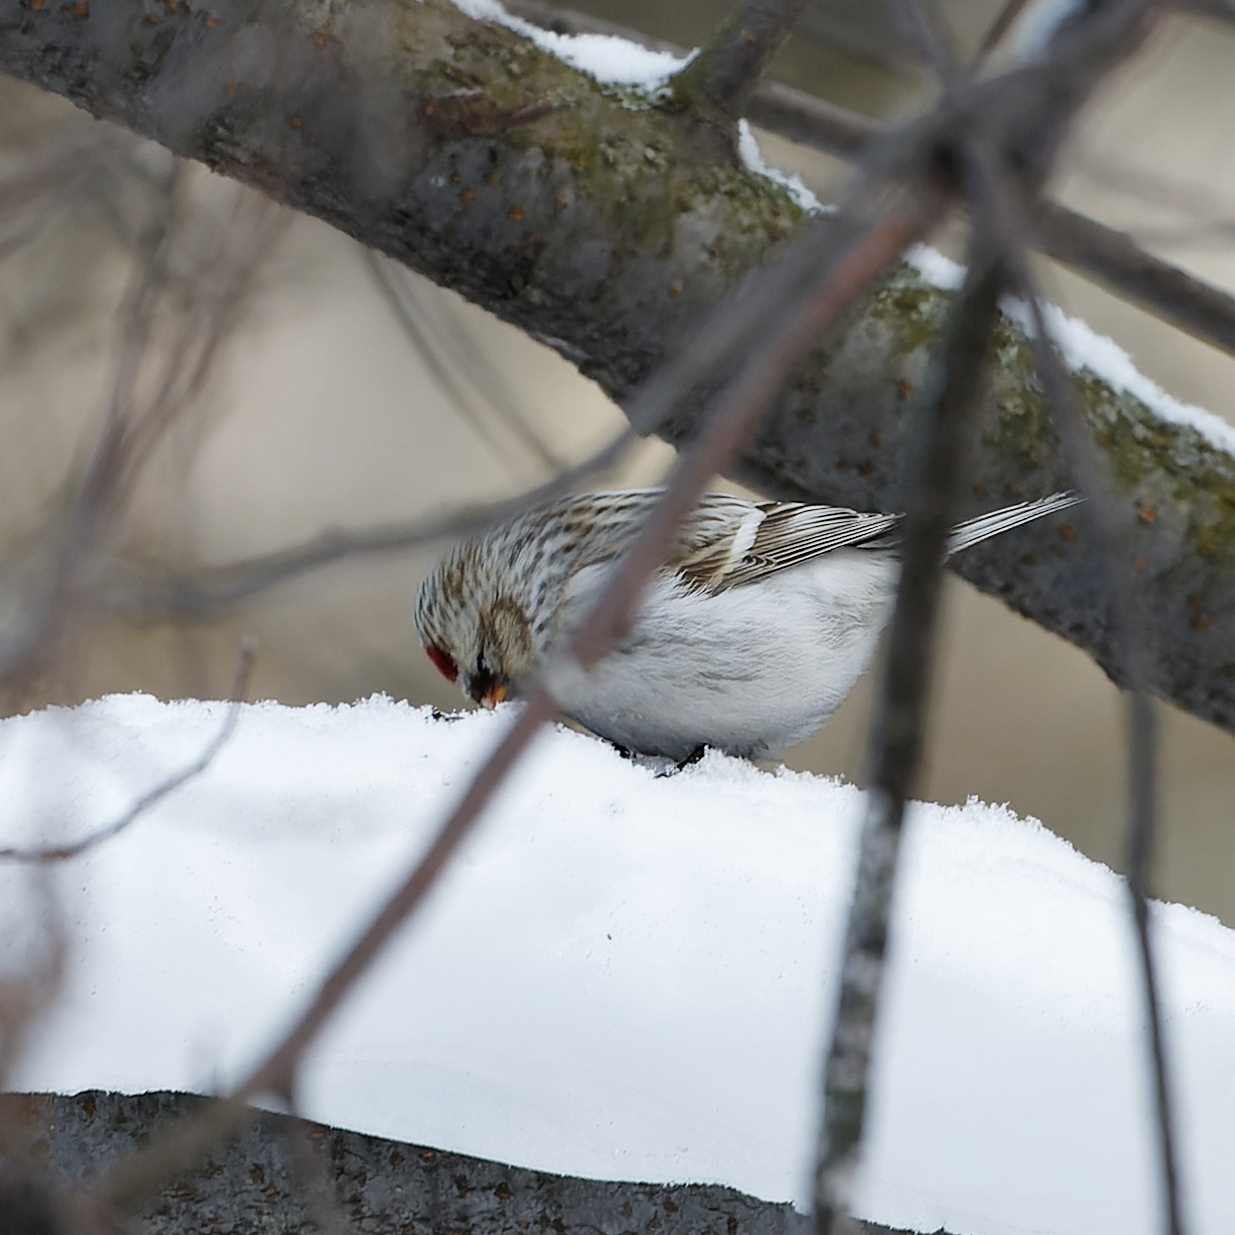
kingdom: Animalia
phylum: Chordata
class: Aves
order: Passeriformes
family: Fringillidae
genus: Acanthis
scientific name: Acanthis hornemanni
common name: Arctic redpoll
